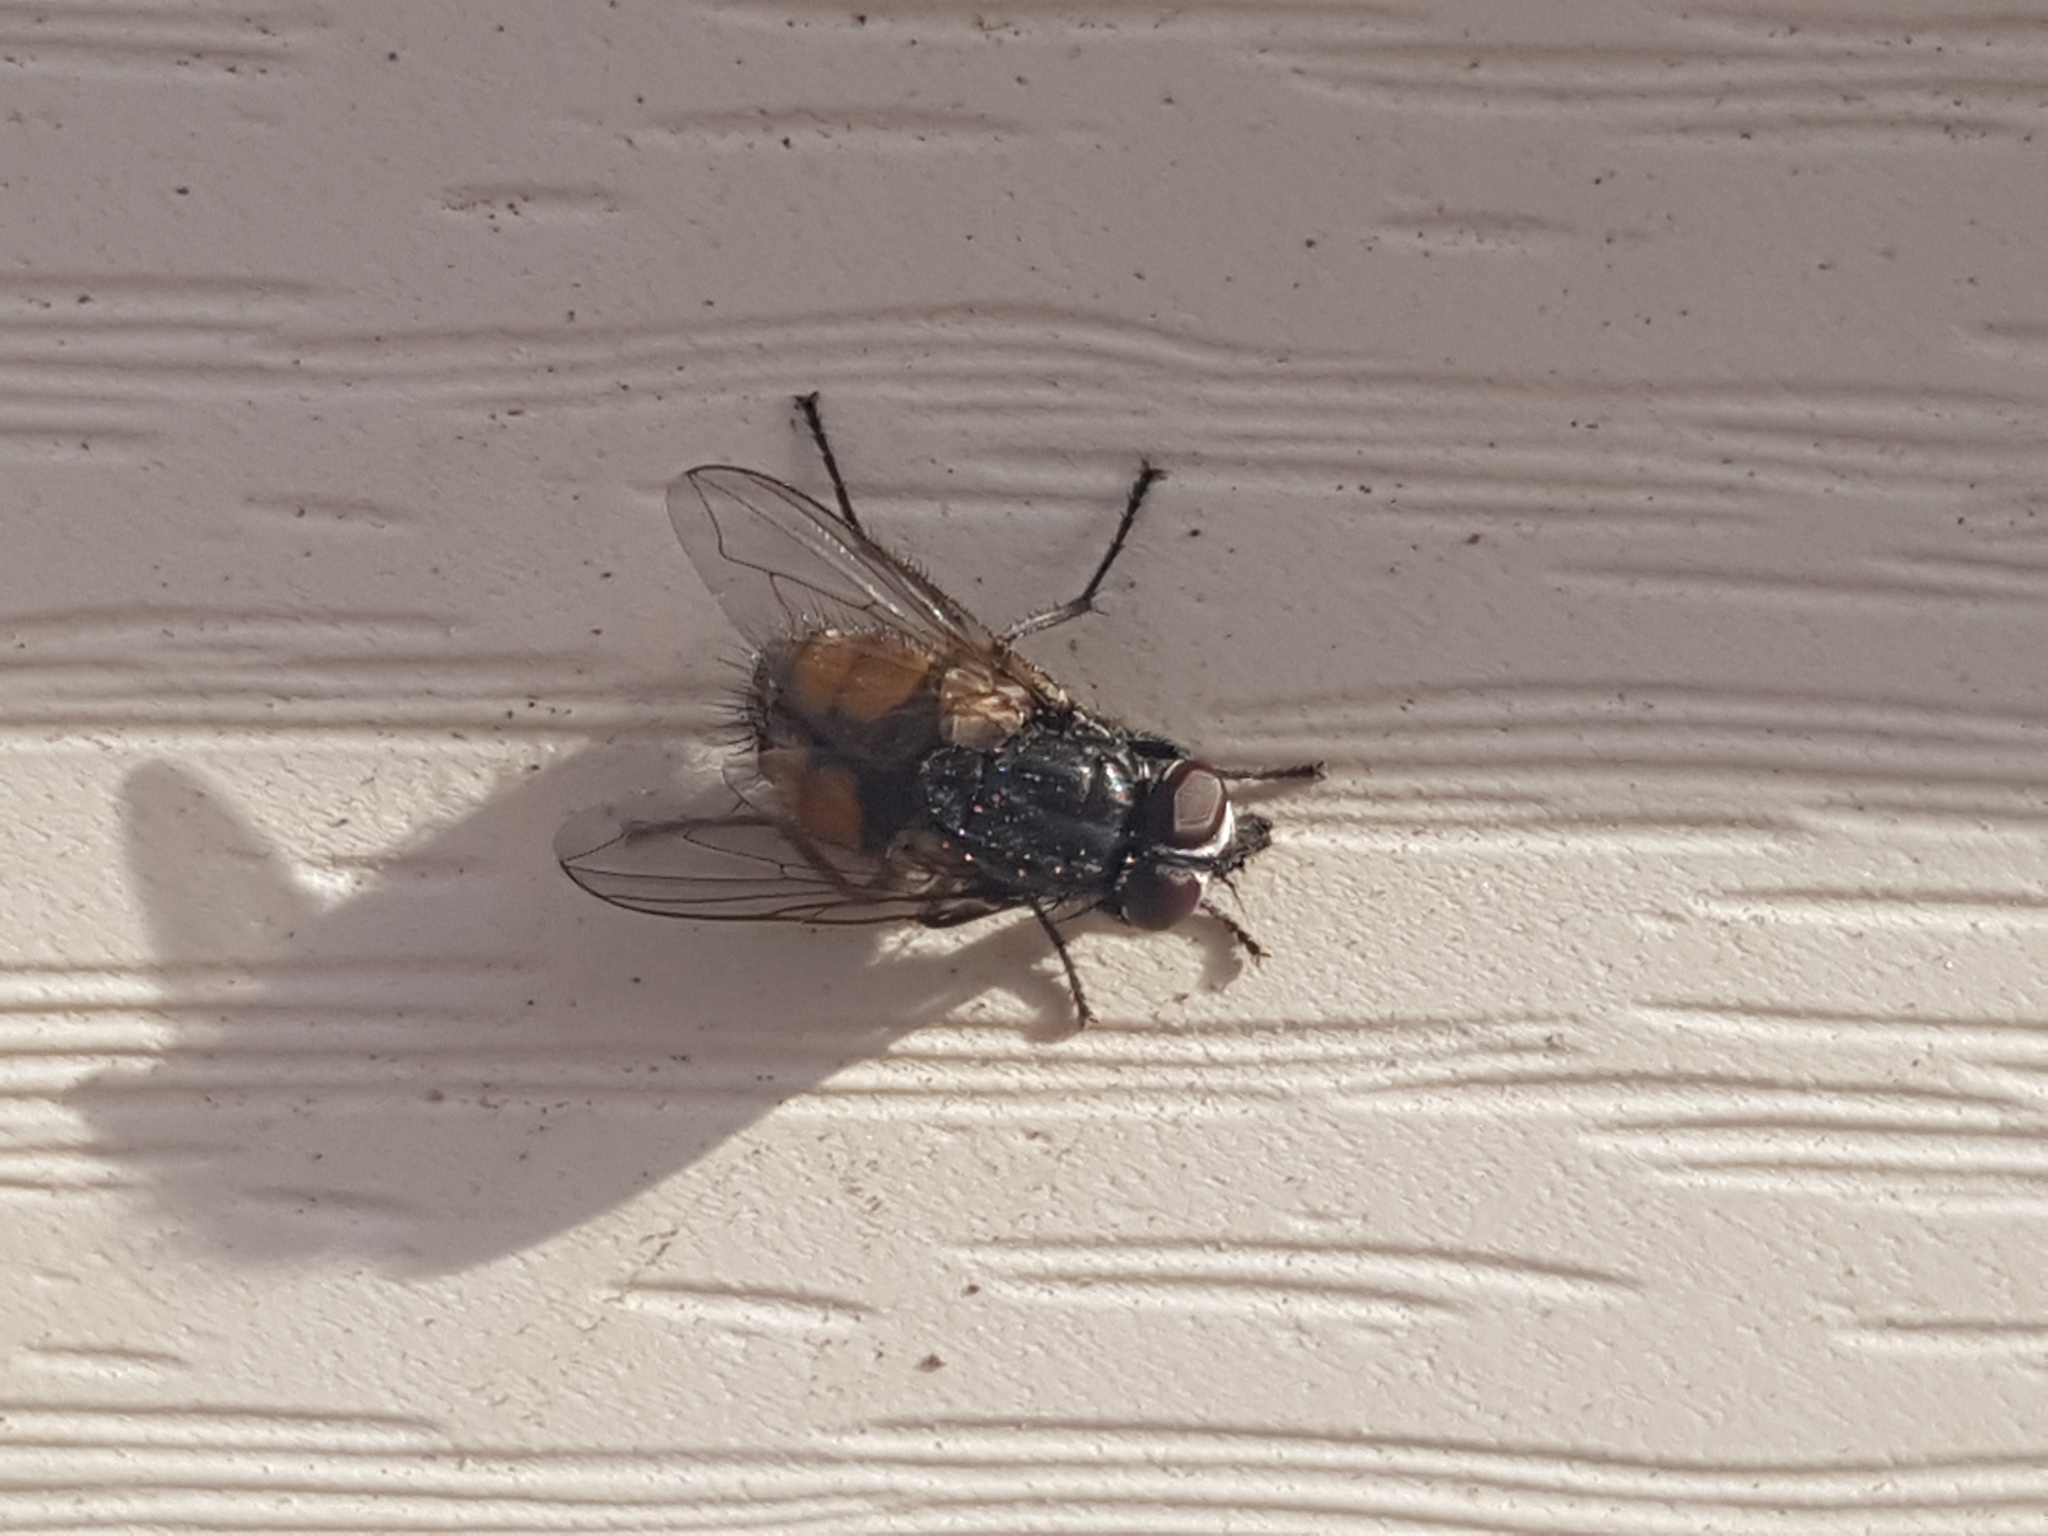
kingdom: Animalia
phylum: Arthropoda
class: Insecta
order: Diptera
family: Muscidae
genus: Musca
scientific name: Musca autumnalis
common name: Face fly
